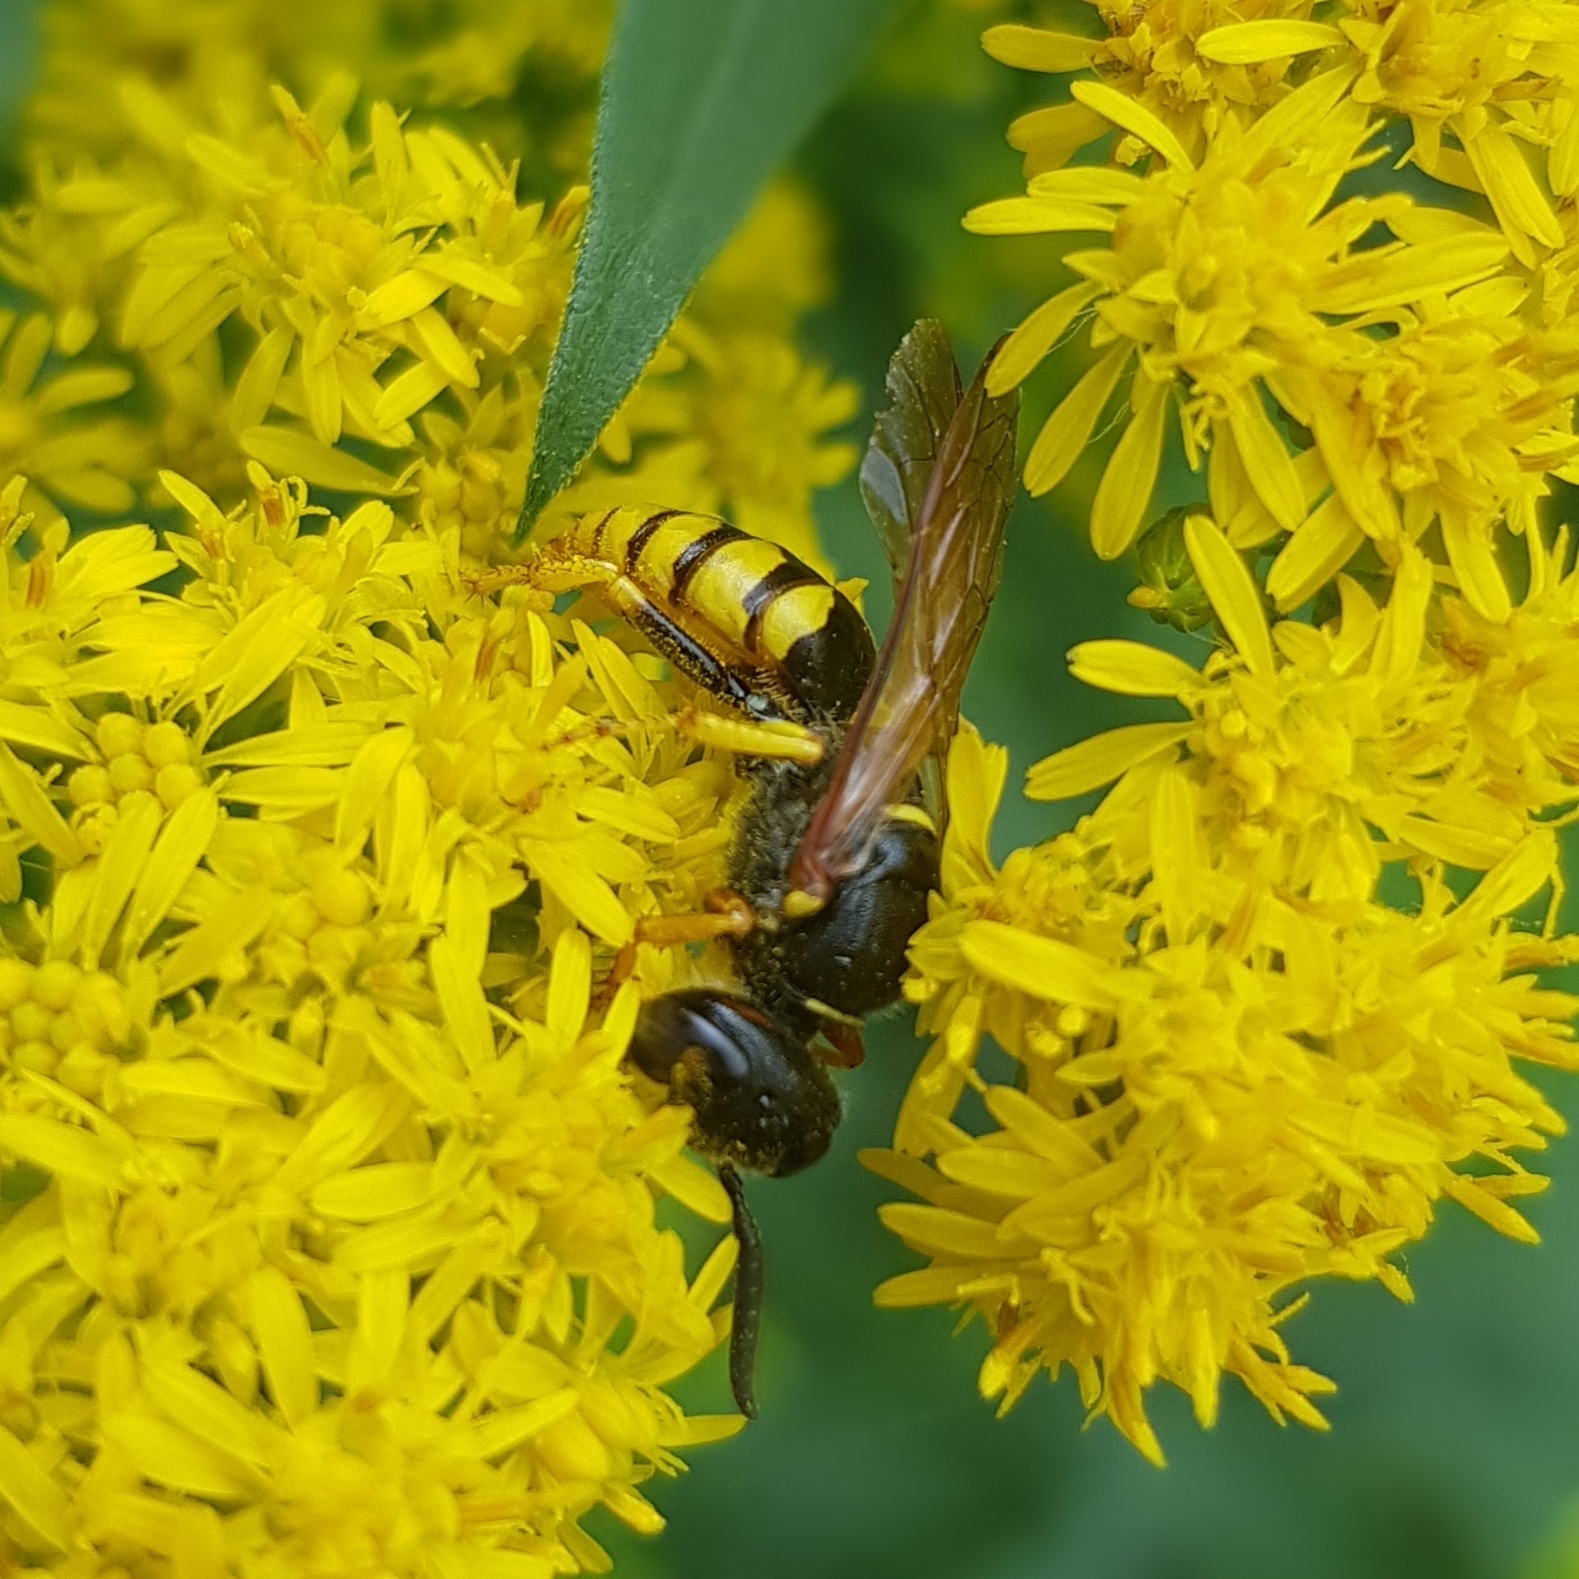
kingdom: Animalia
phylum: Arthropoda
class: Insecta
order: Hymenoptera
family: Crabronidae
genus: Philanthus
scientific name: Philanthus triangulum
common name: Bee wolf
